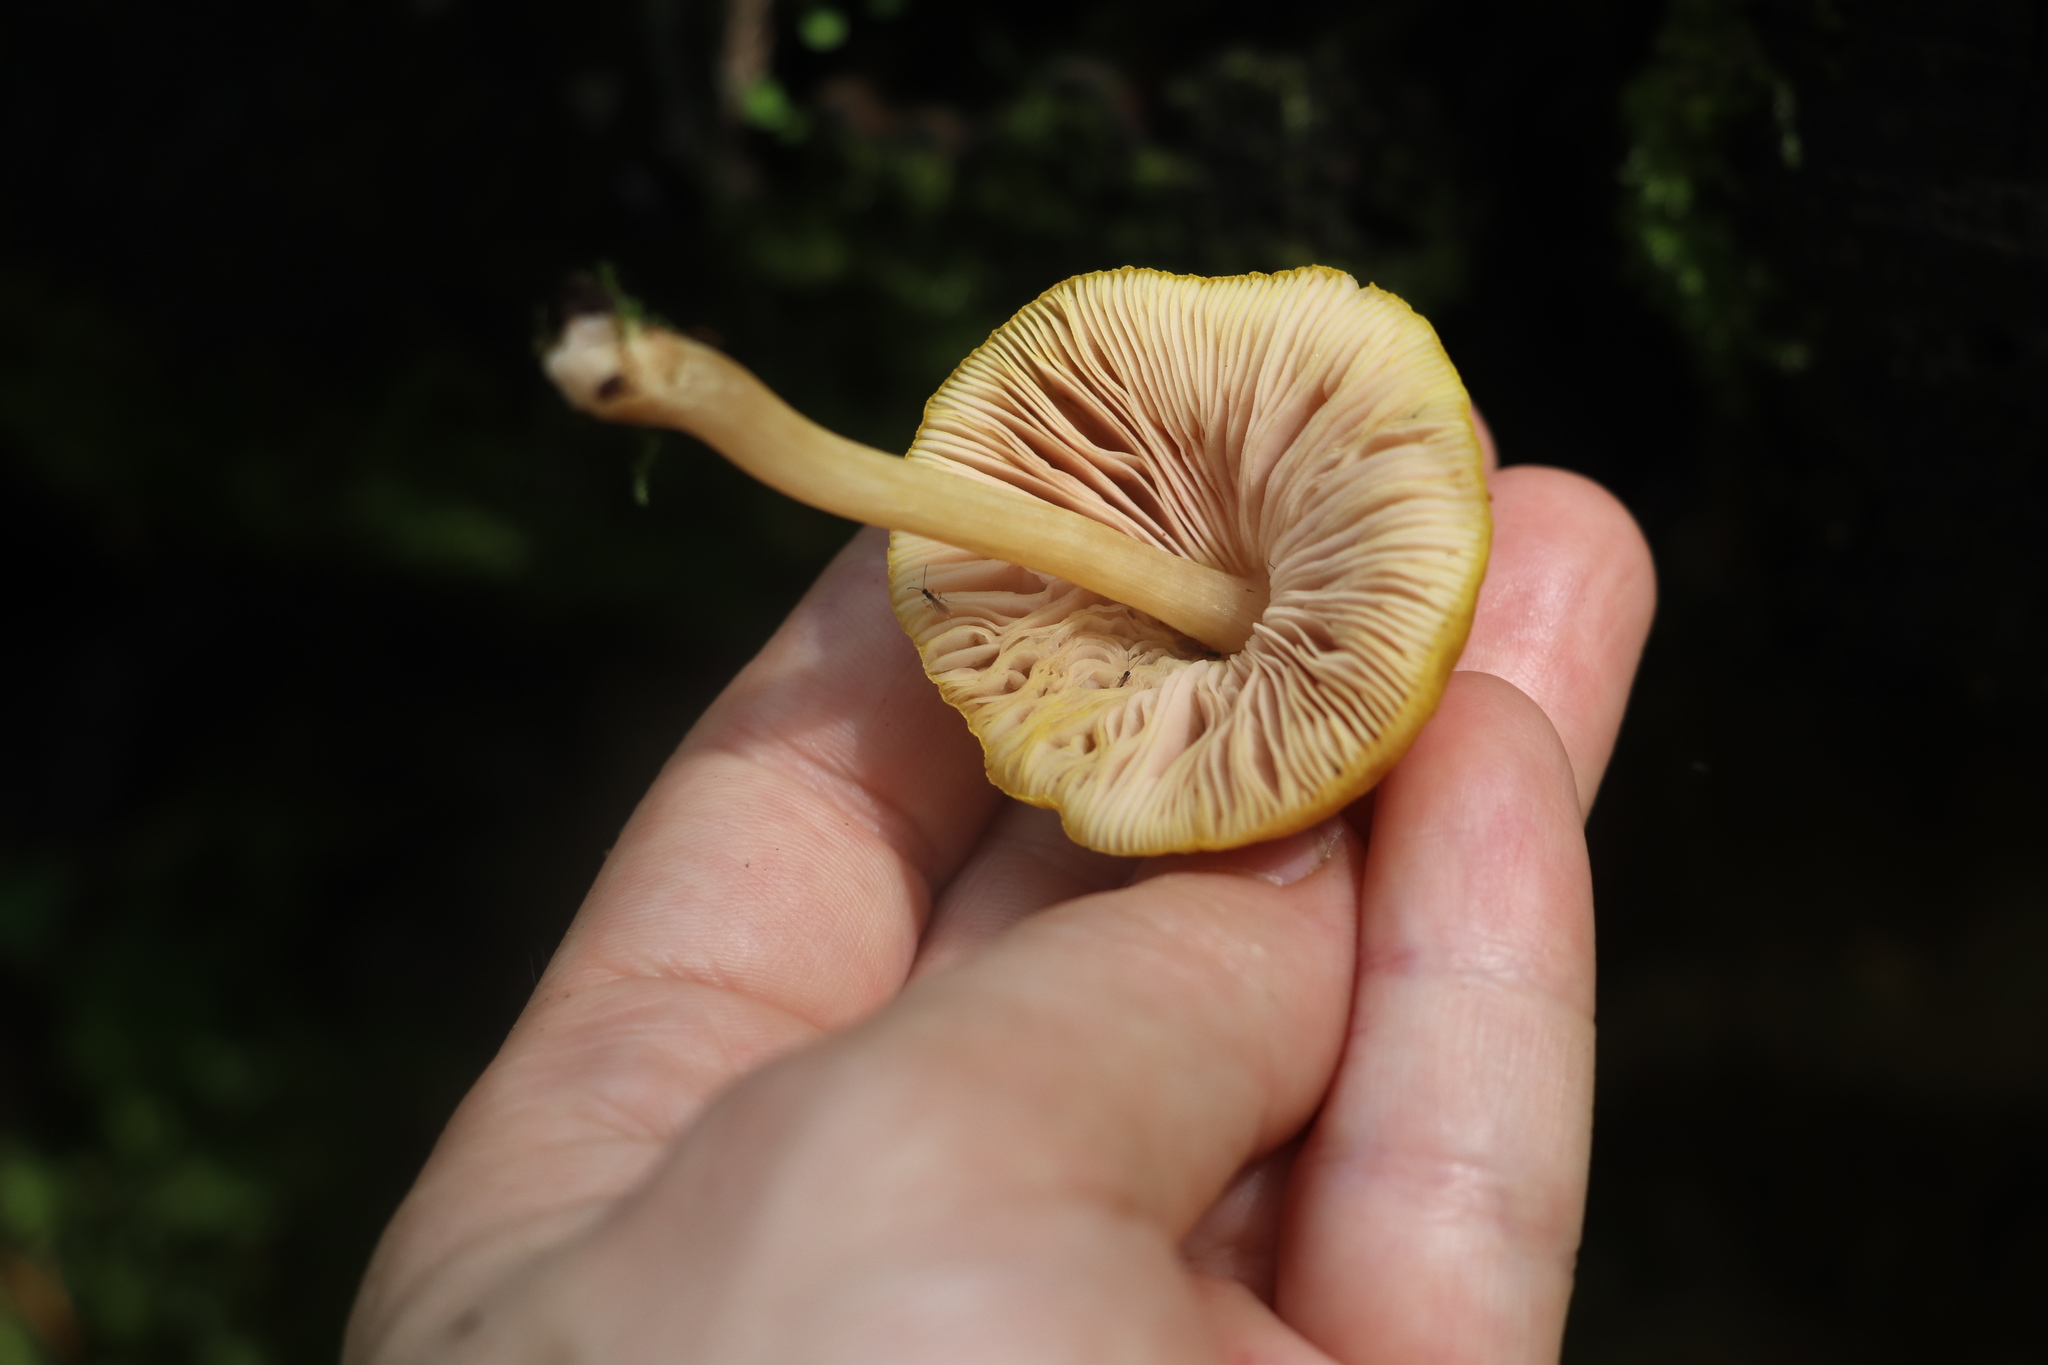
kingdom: Fungi
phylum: Basidiomycota
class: Agaricomycetes
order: Agaricales
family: Pluteaceae
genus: Pluteus
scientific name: Pluteus leoninus
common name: Lion shield
